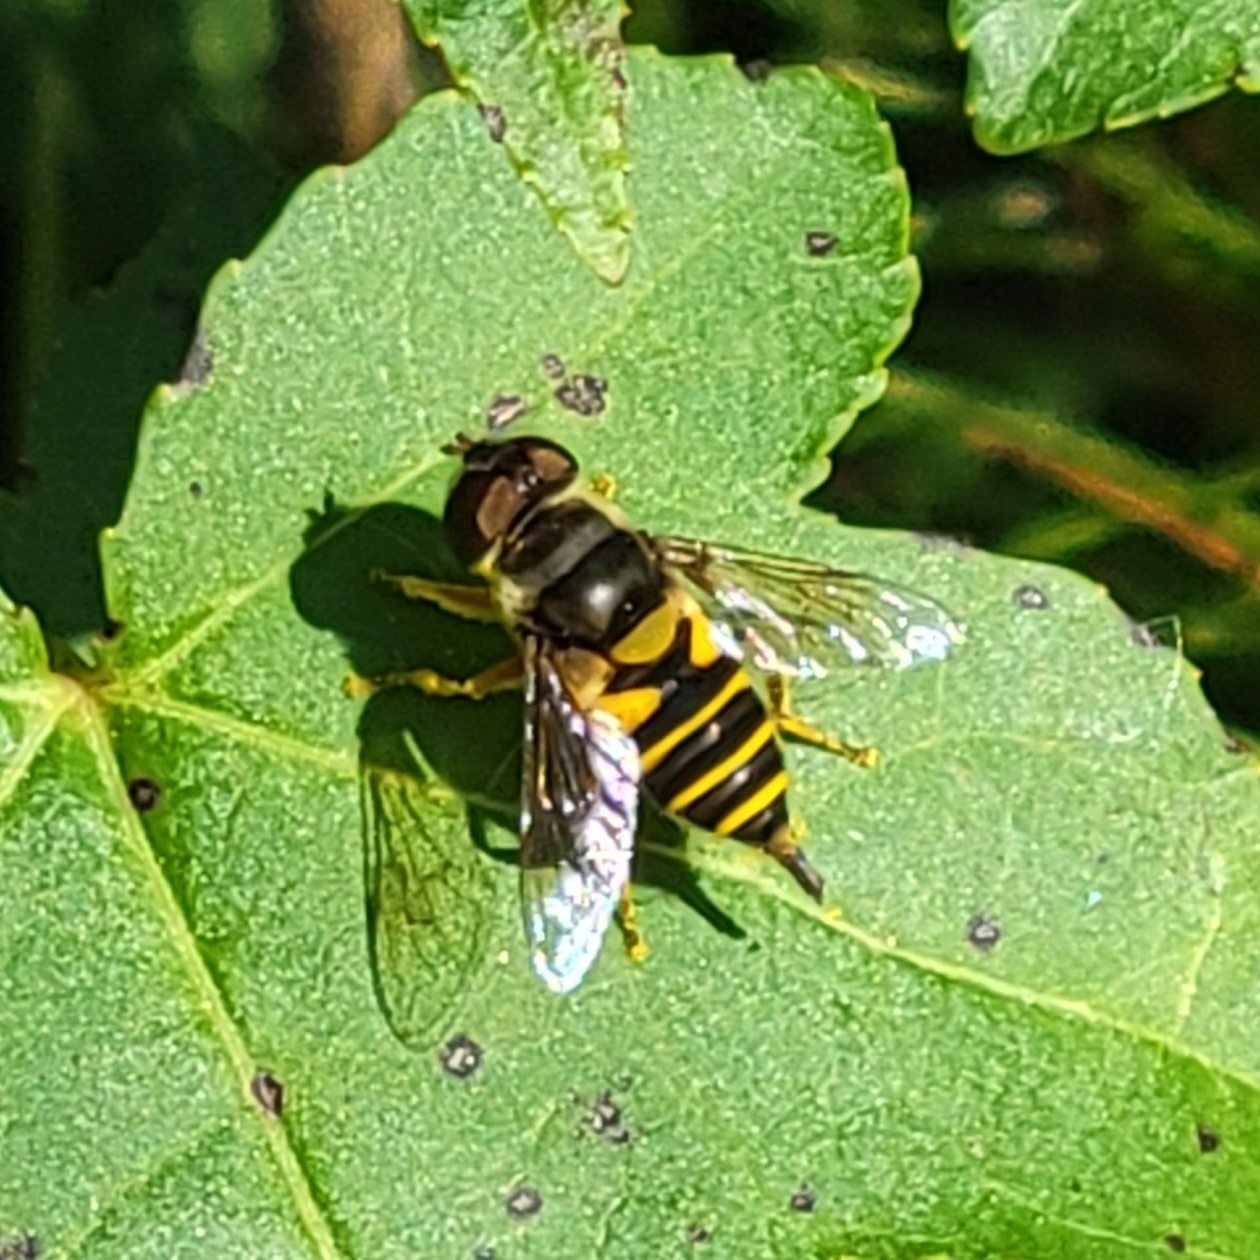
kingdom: Animalia
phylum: Arthropoda
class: Insecta
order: Diptera
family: Syrphidae
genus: Eristalis
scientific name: Eristalis transversa
